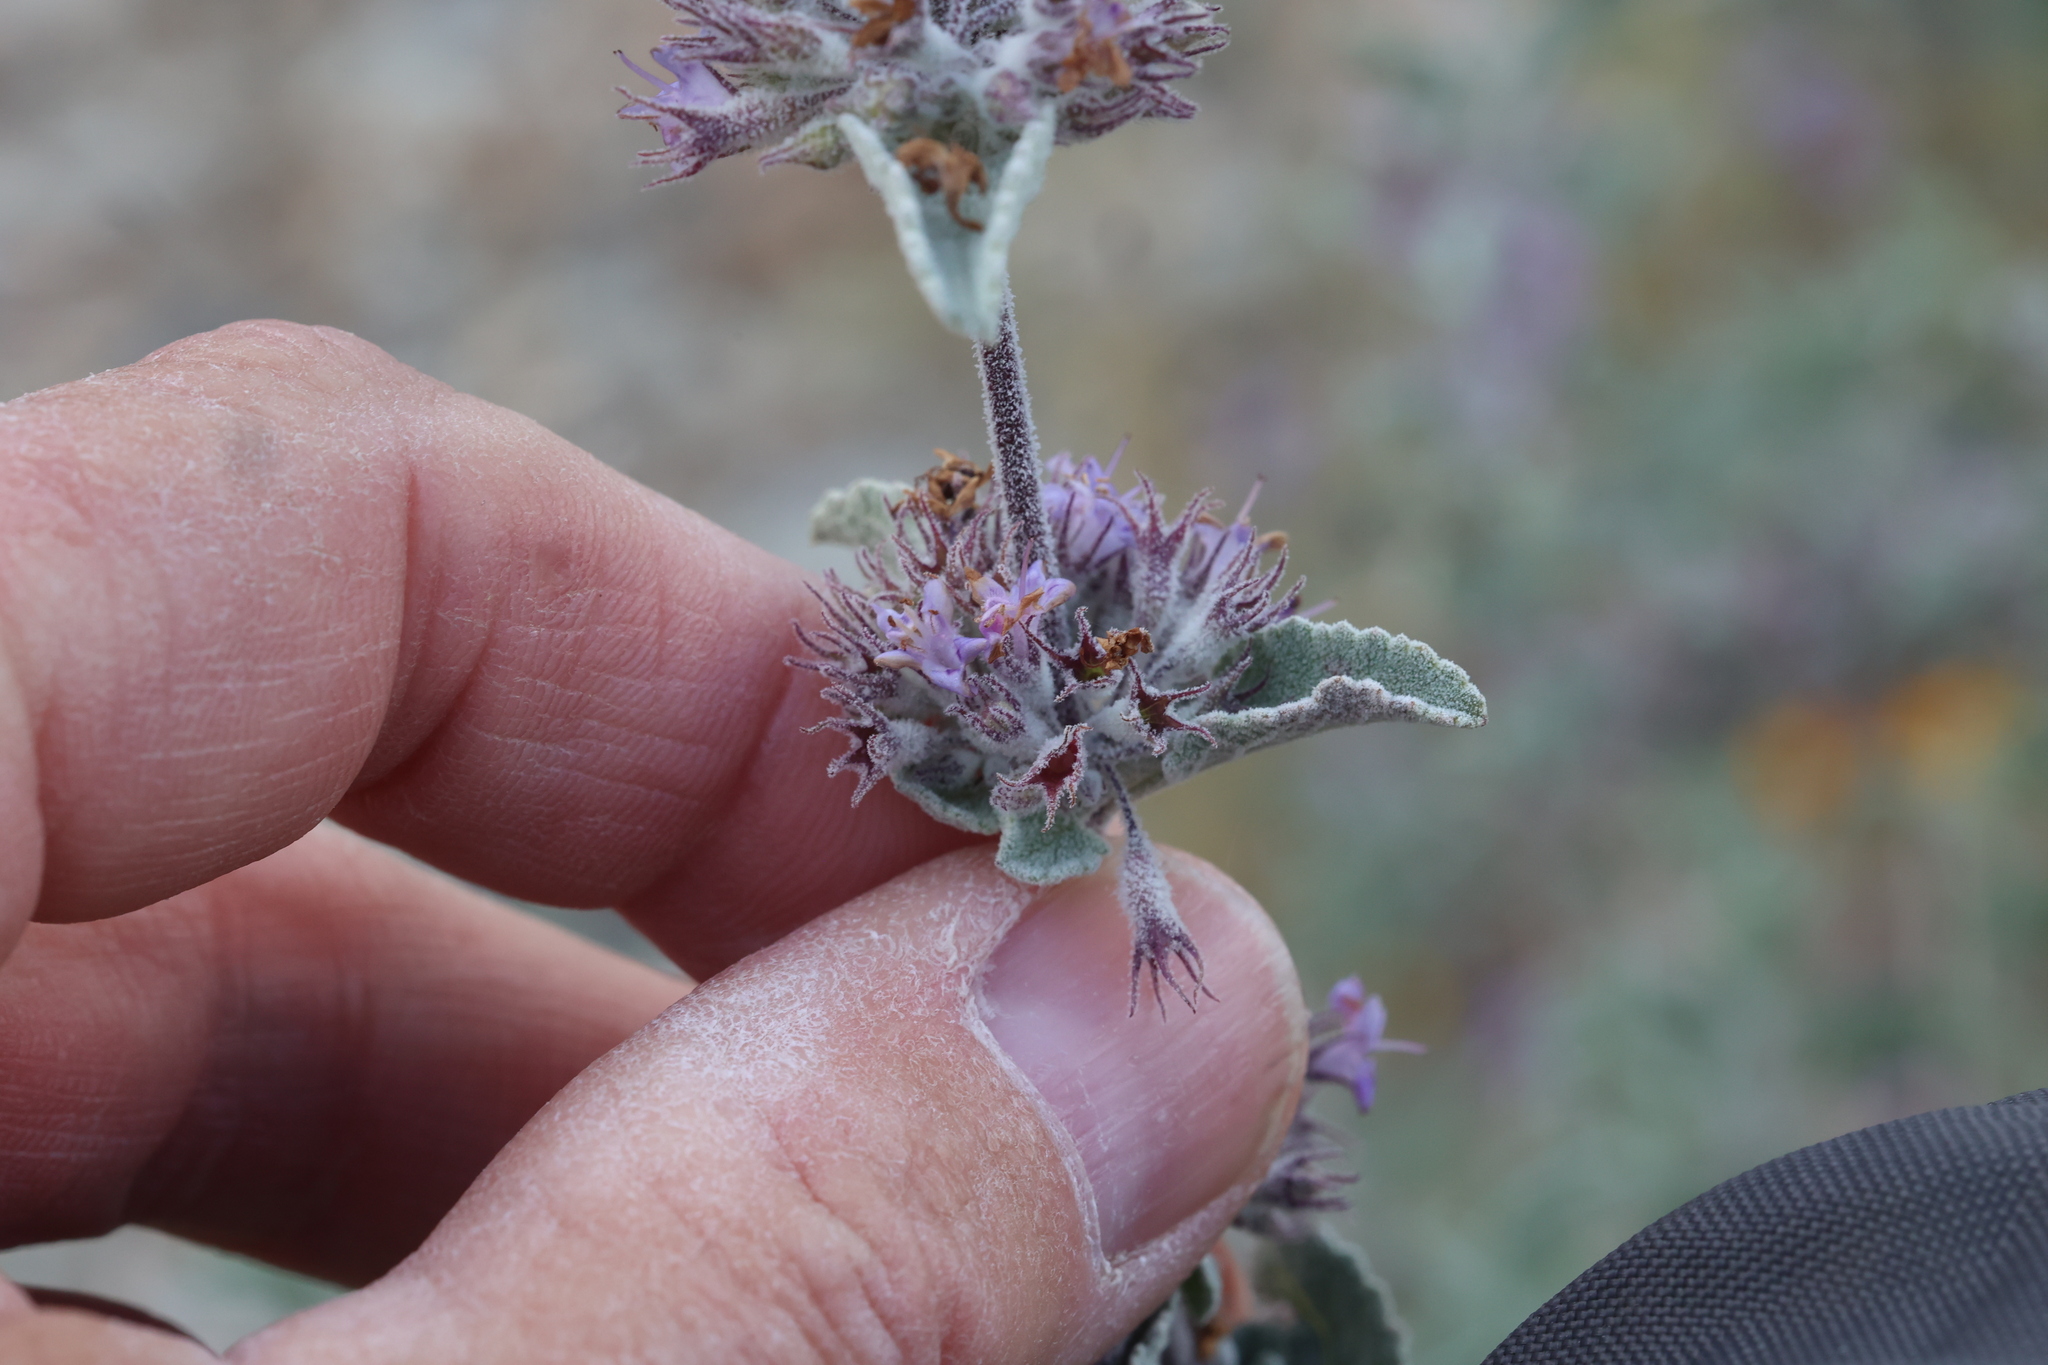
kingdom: Plantae
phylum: Tracheophyta
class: Magnoliopsida
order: Lamiales
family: Lamiaceae
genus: Condea
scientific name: Condea emoryi
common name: Chia
